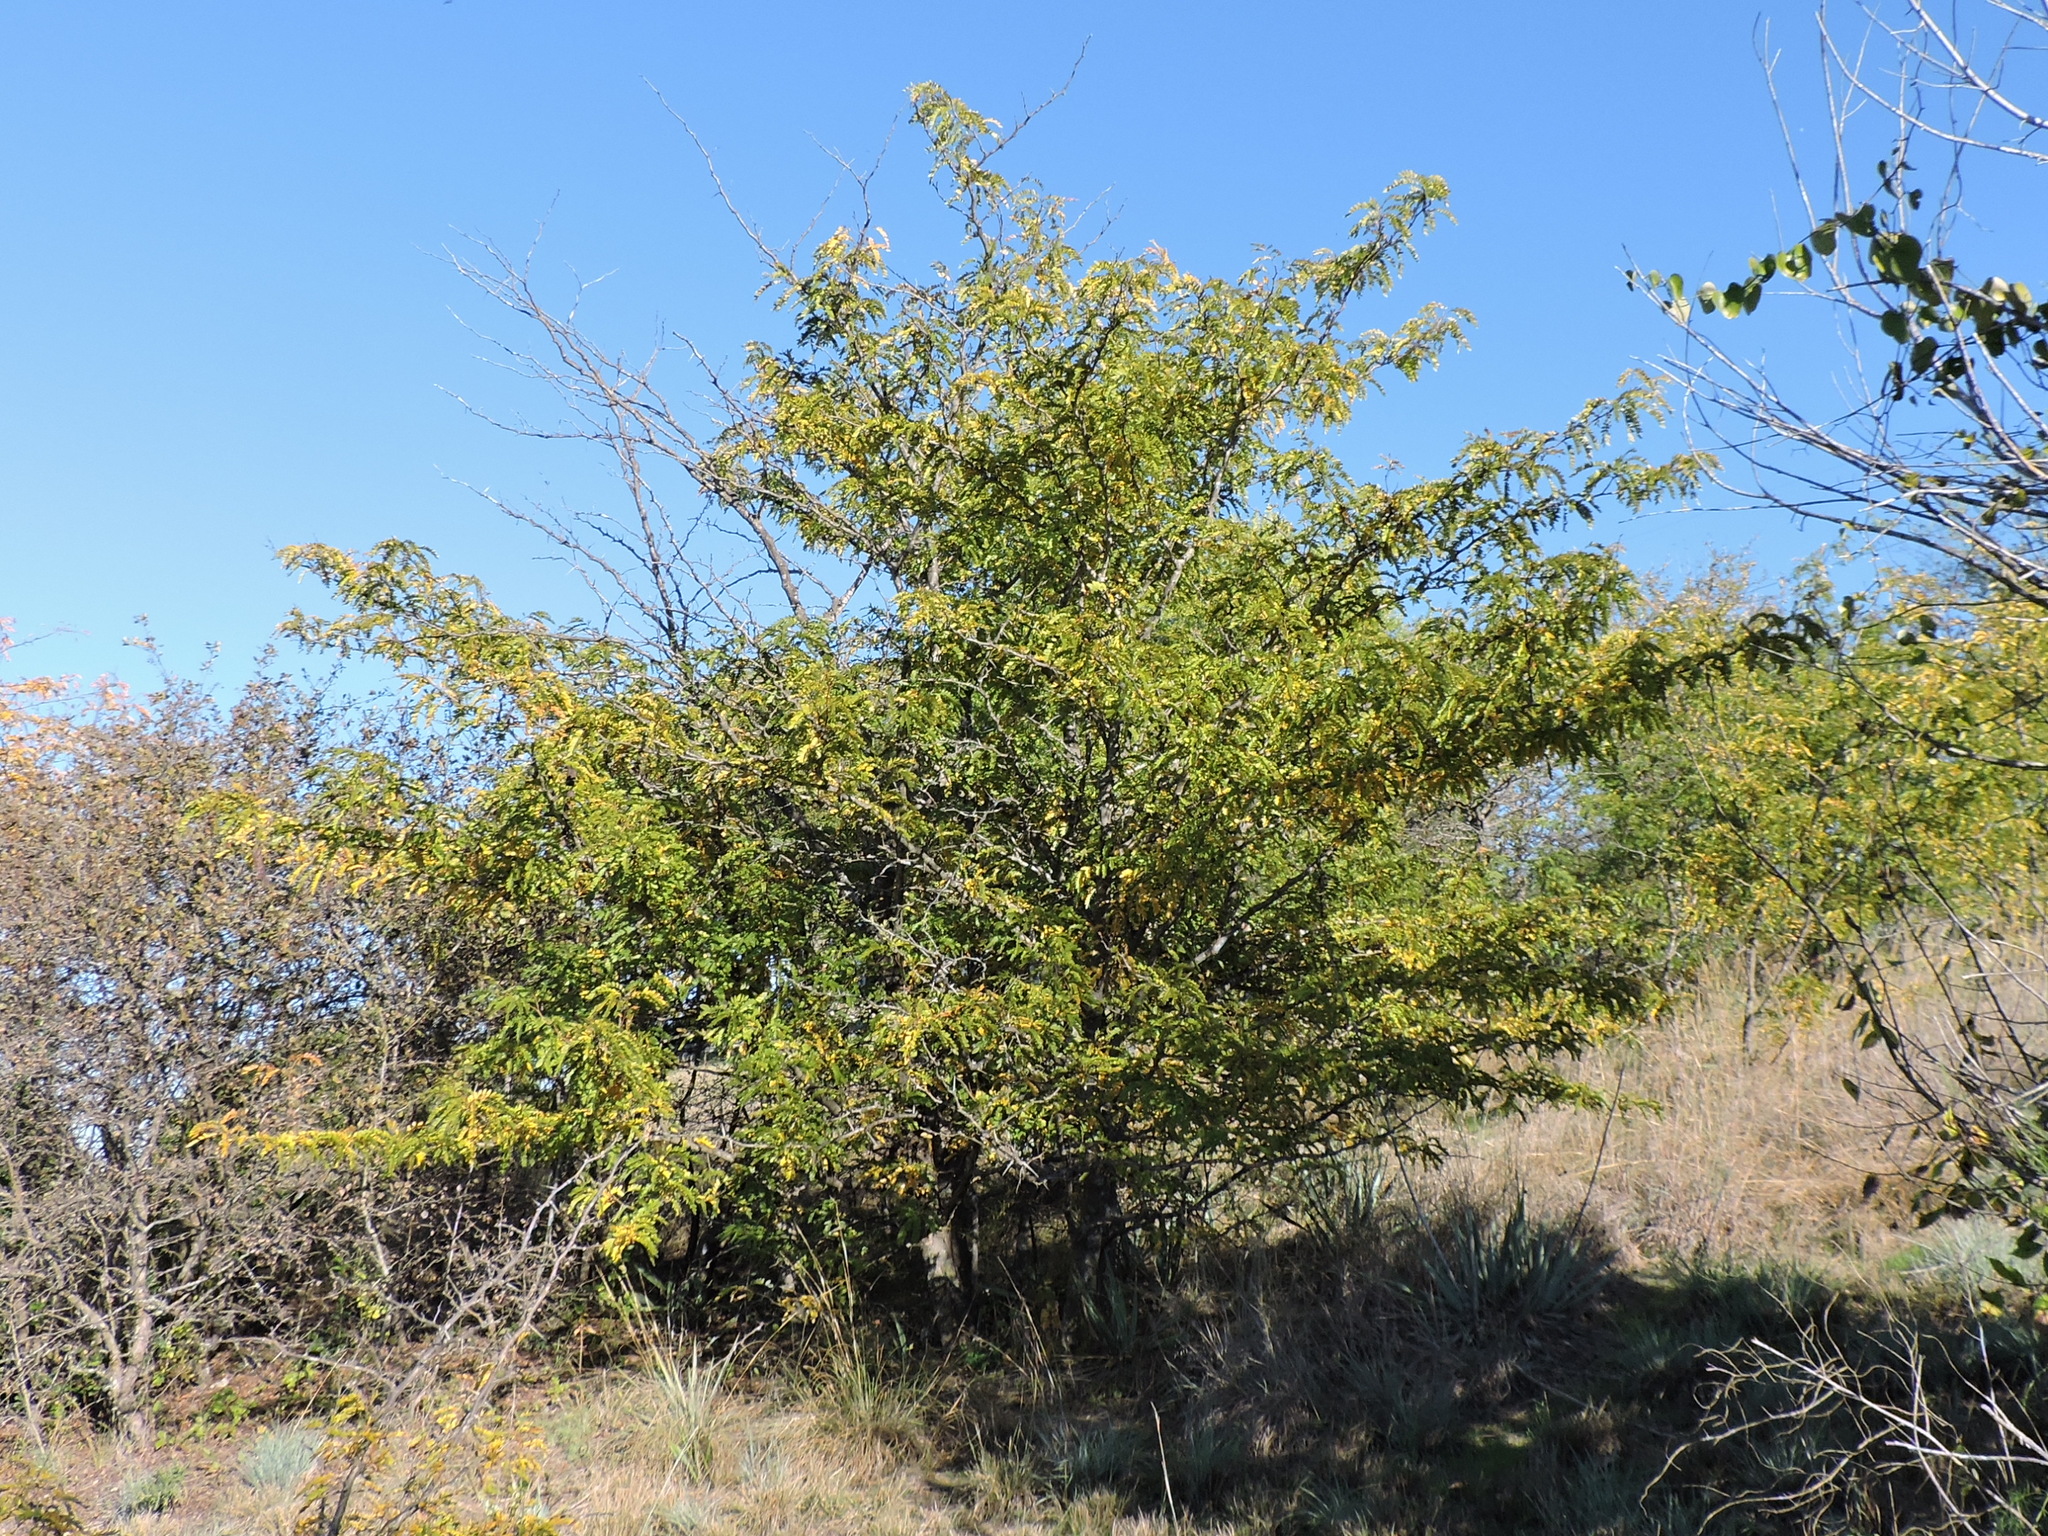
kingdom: Plantae
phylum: Tracheophyta
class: Magnoliopsida
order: Fabales
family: Fabaceae
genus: Gleditsia
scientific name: Gleditsia triacanthos
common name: Common honeylocust
